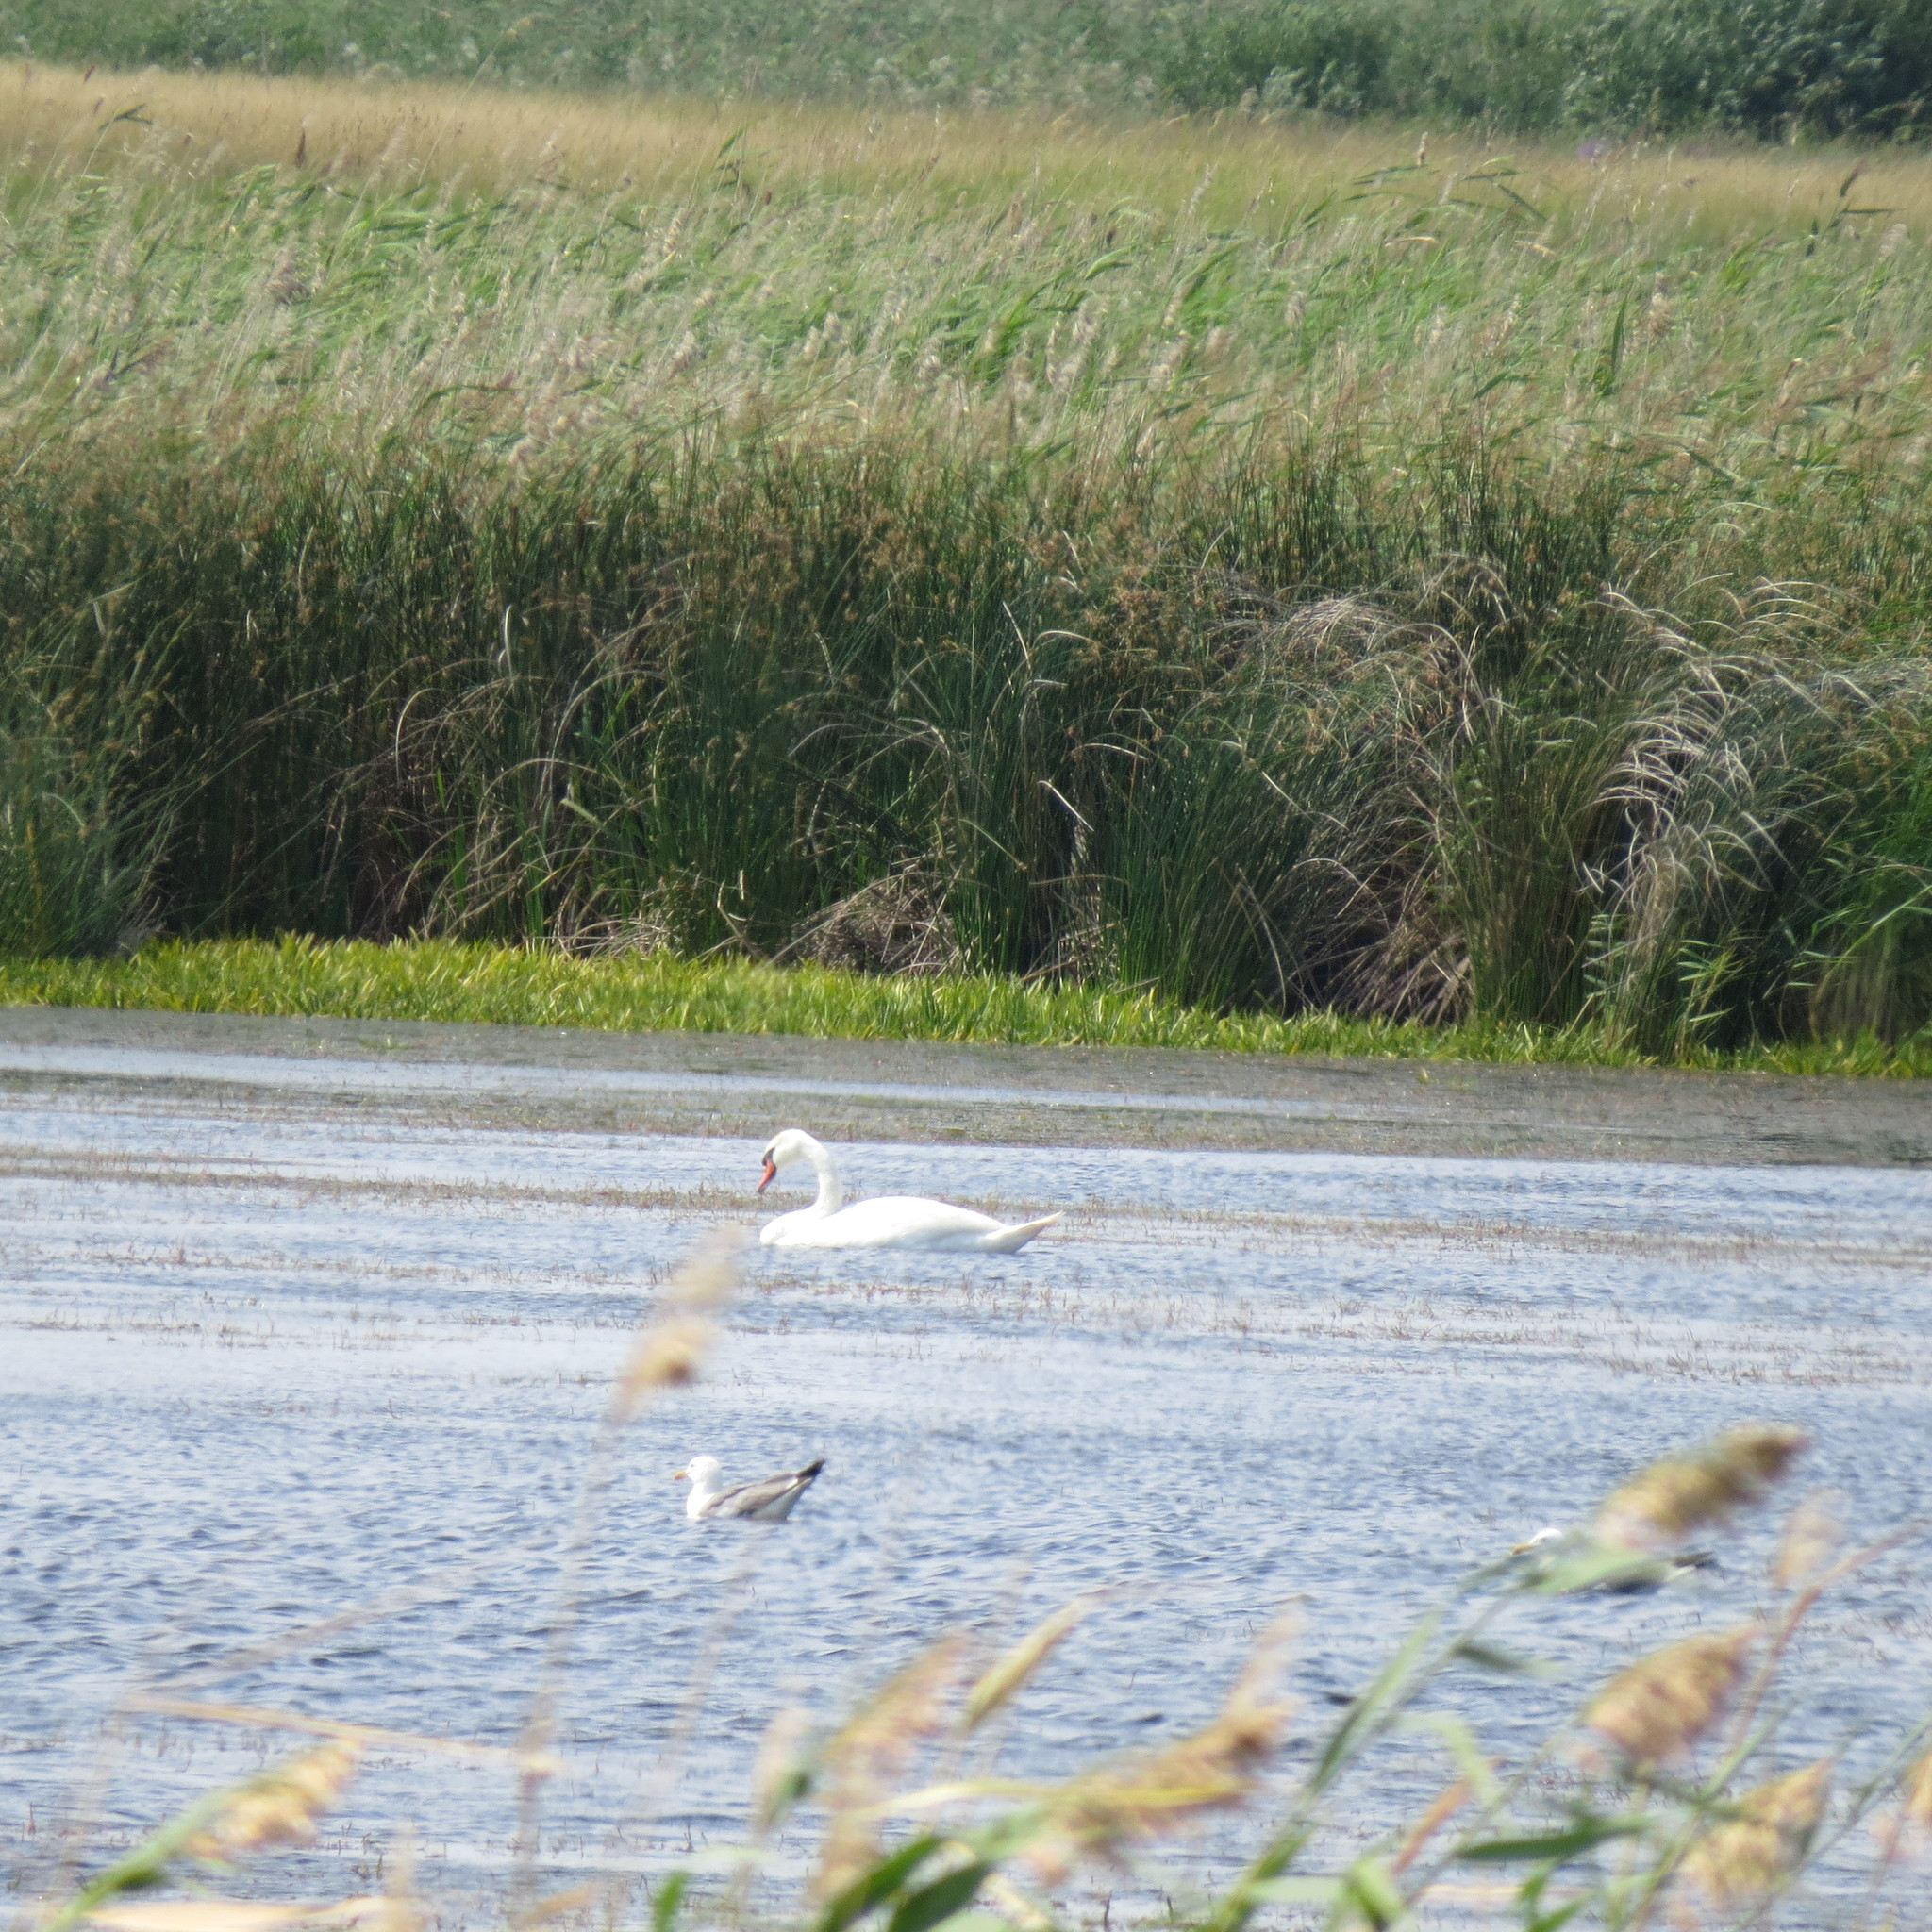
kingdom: Animalia
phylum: Chordata
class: Aves
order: Charadriiformes
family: Laridae
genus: Larus
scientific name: Larus fuscus
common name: Lesser black-backed gull
